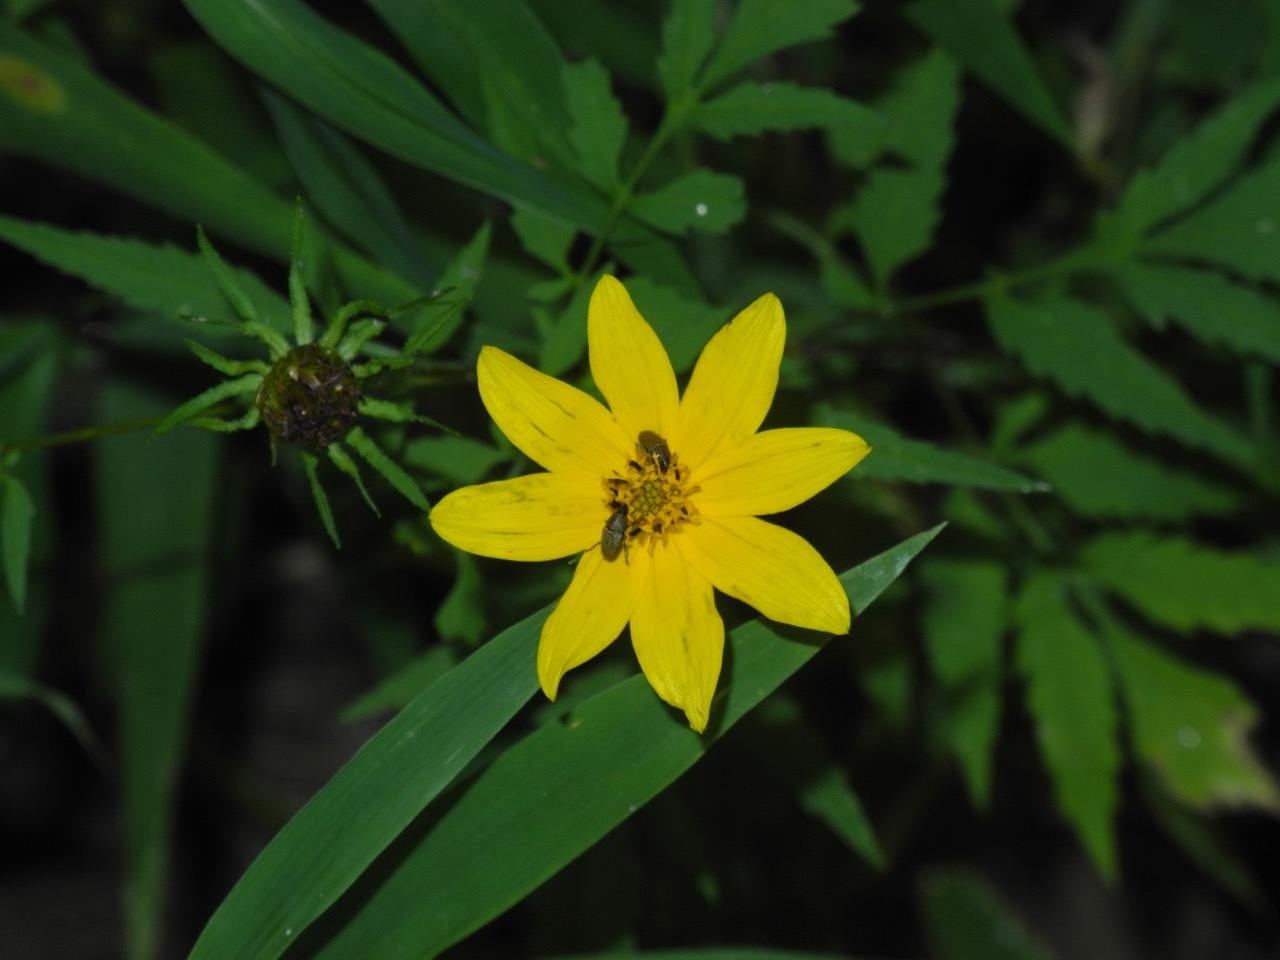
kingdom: Animalia
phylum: Arthropoda
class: Insecta
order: Coleoptera
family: Curculionidae
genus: Odontocorynus
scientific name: Odontocorynus umbellae
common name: Daisy flower weevil
